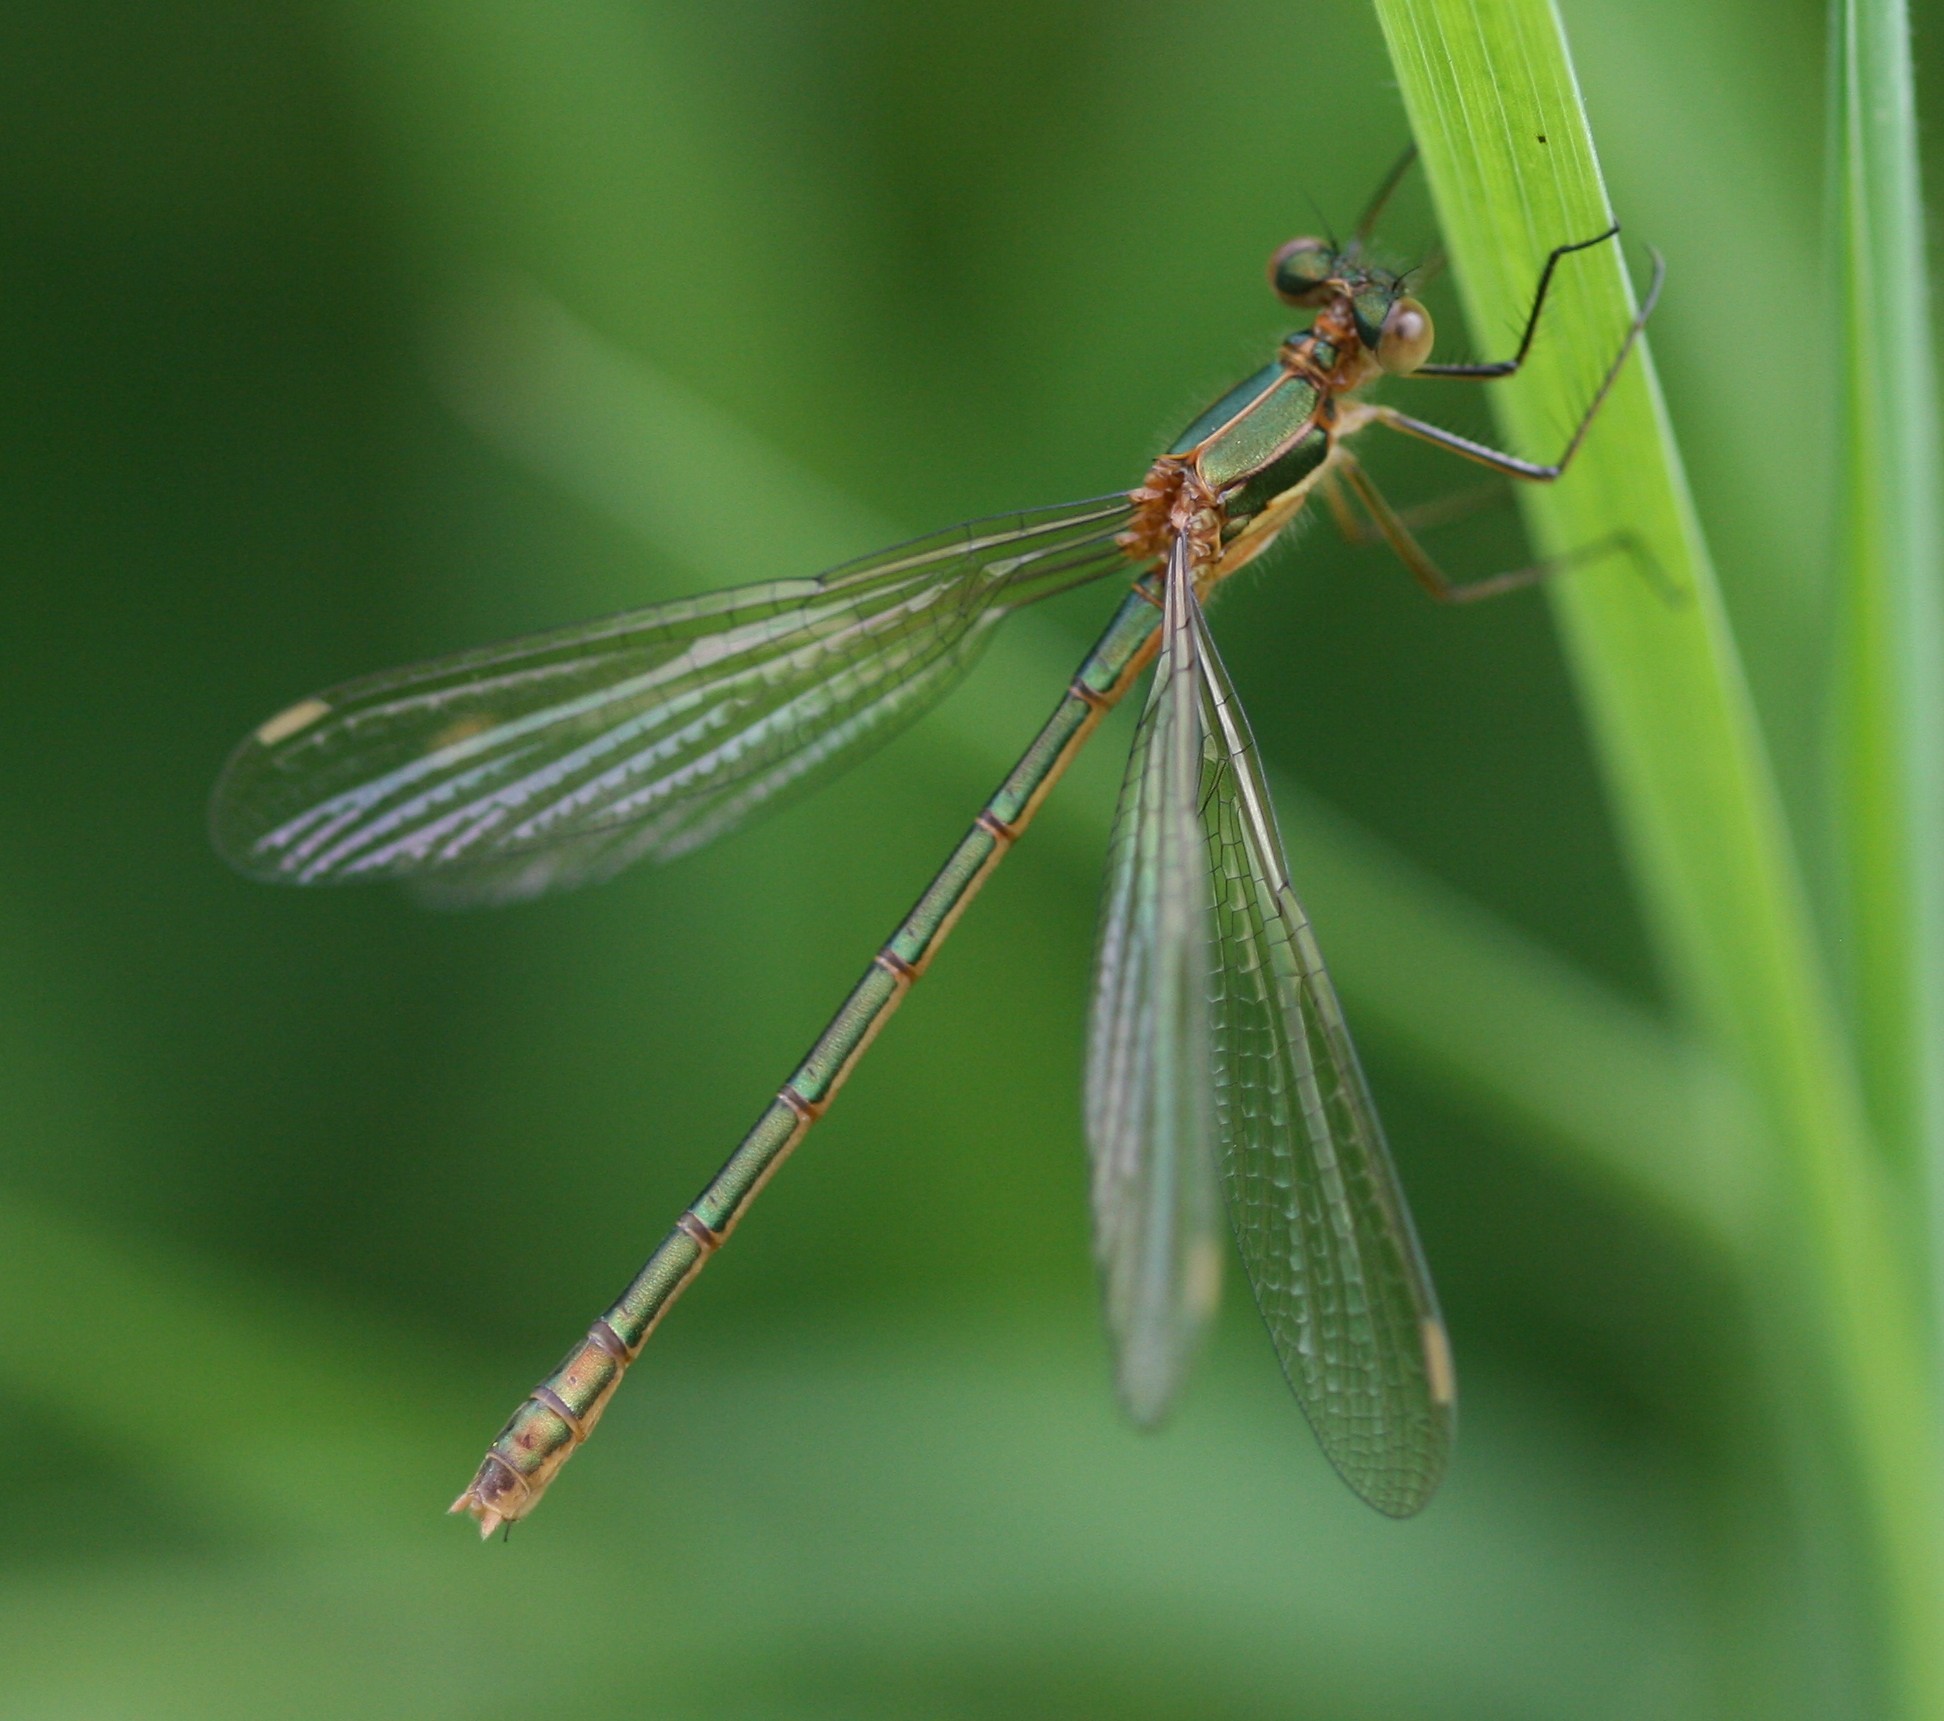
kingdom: Animalia
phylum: Arthropoda
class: Insecta
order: Odonata
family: Lestidae
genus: Lestes
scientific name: Lestes sponsa
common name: Common spreadwing
